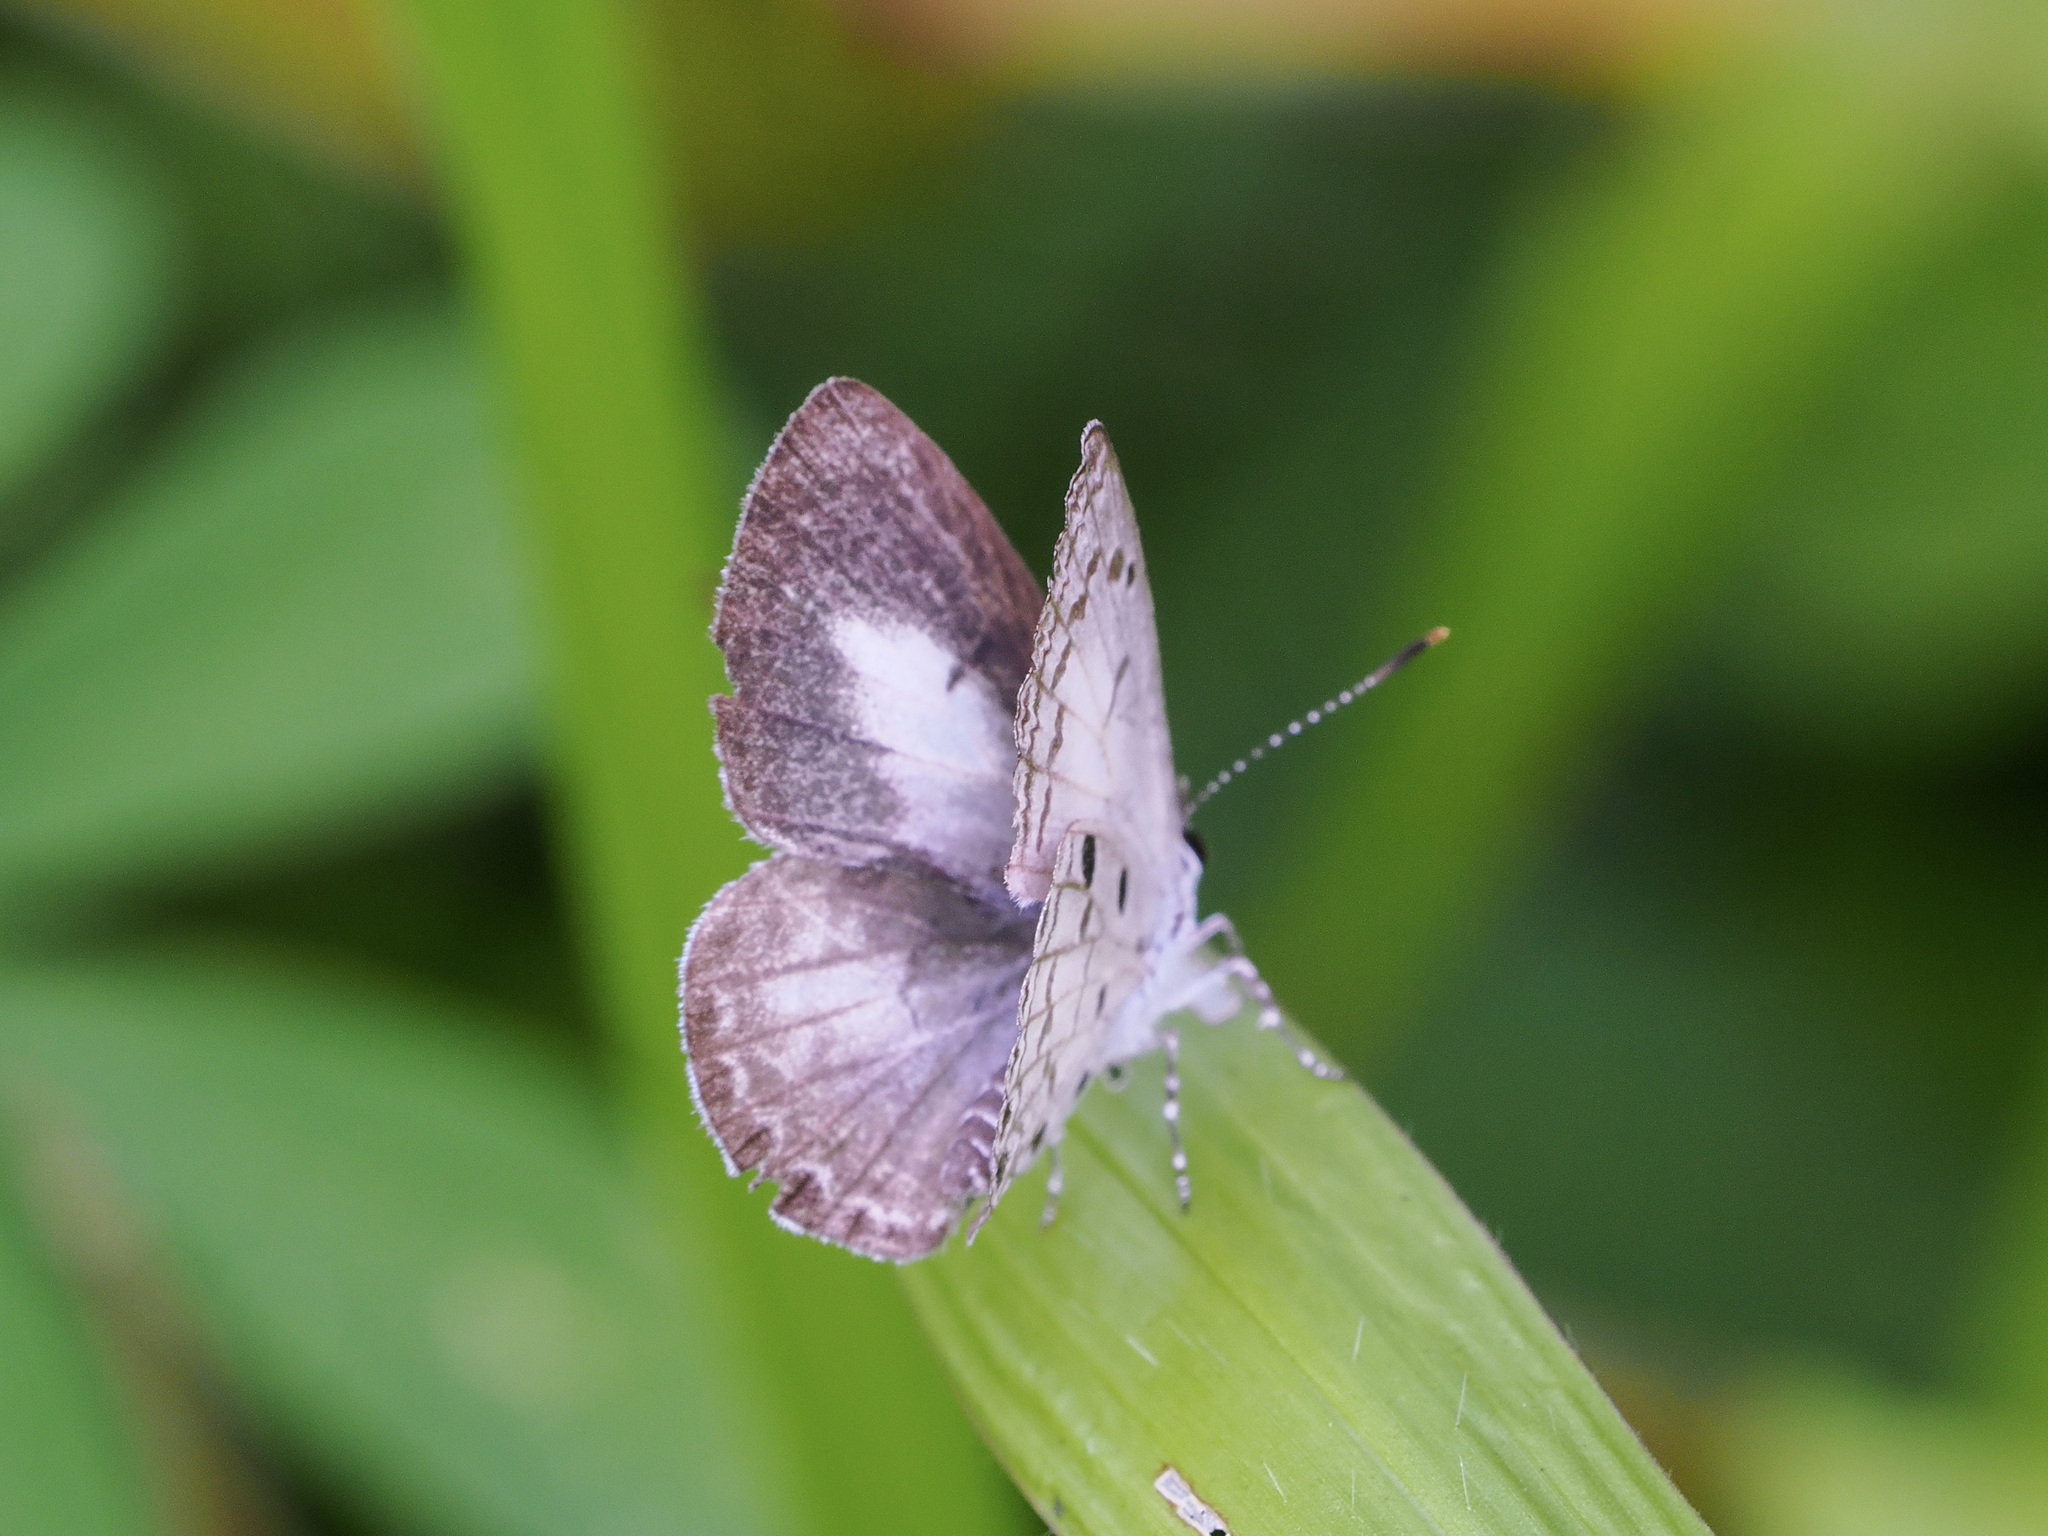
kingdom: Animalia
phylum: Arthropoda
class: Insecta
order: Lepidoptera
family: Lycaenidae
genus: Acytolepis
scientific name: Acytolepis puspa
